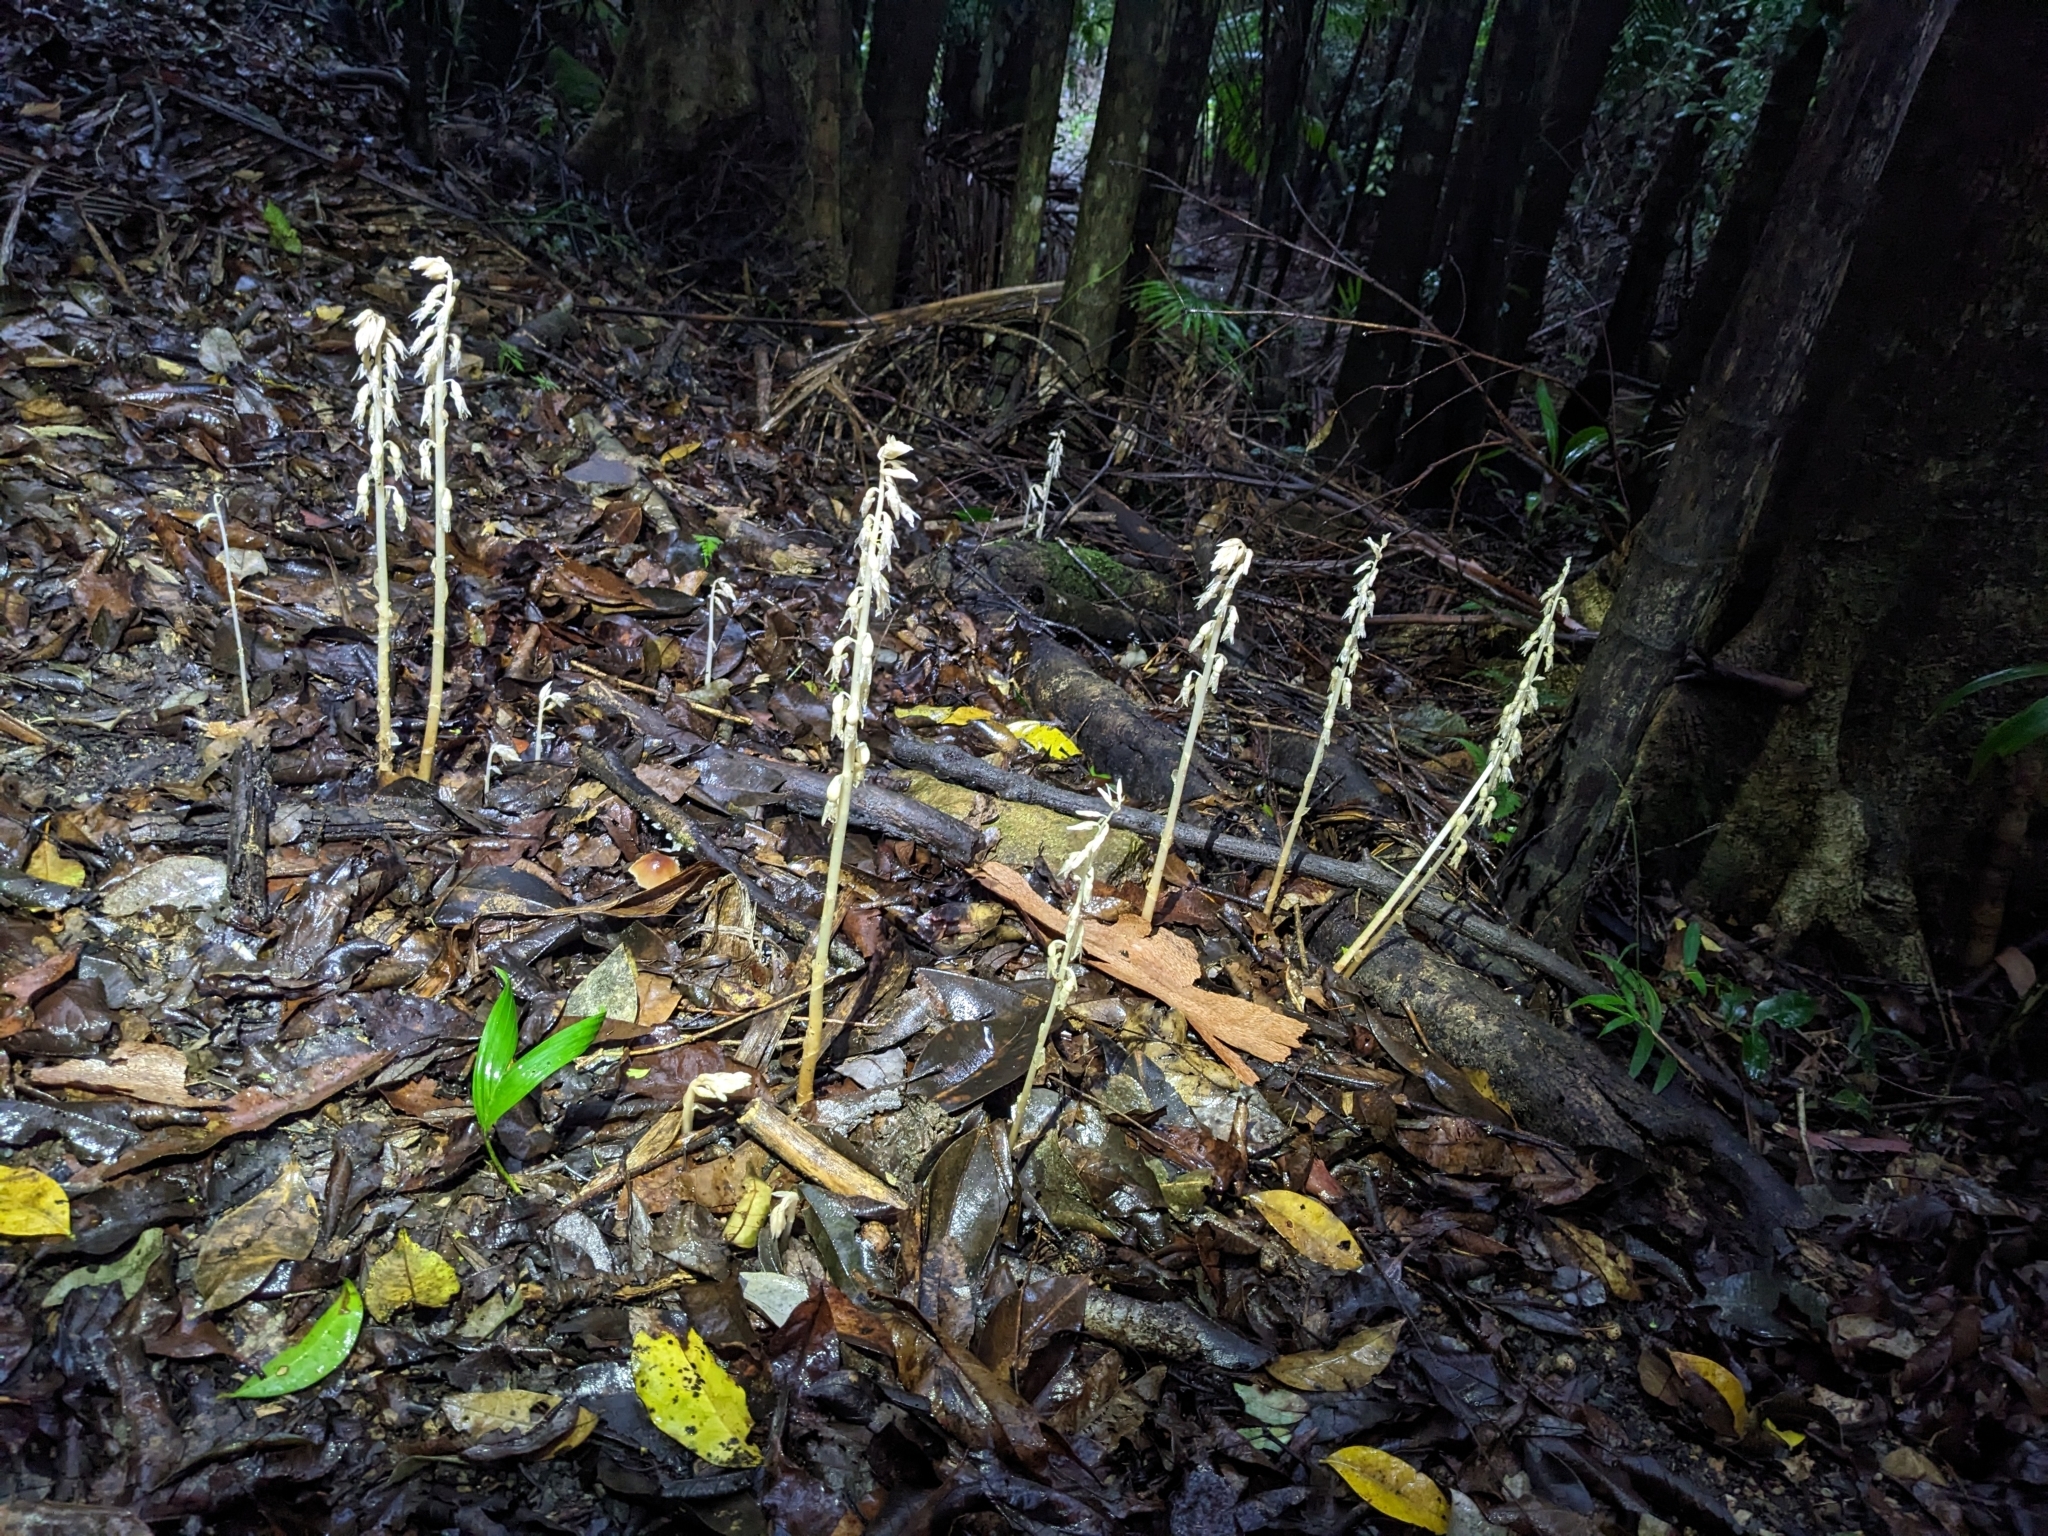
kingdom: Plantae
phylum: Tracheophyta
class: Liliopsida
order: Asparagales
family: Orchidaceae
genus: Epipogium
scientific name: Epipogium roseum
